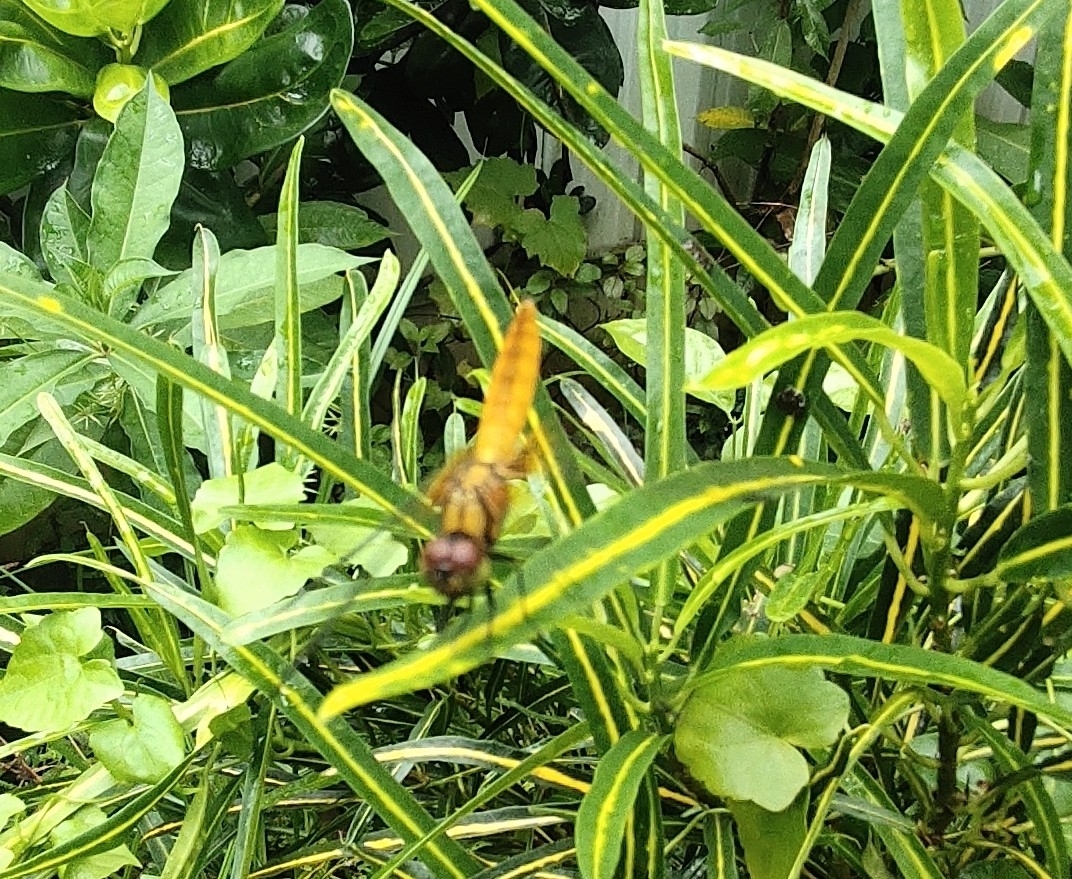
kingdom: Animalia
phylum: Arthropoda
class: Insecta
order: Odonata
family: Libellulidae
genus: Aethriamanta
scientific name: Aethriamanta brevipennis
